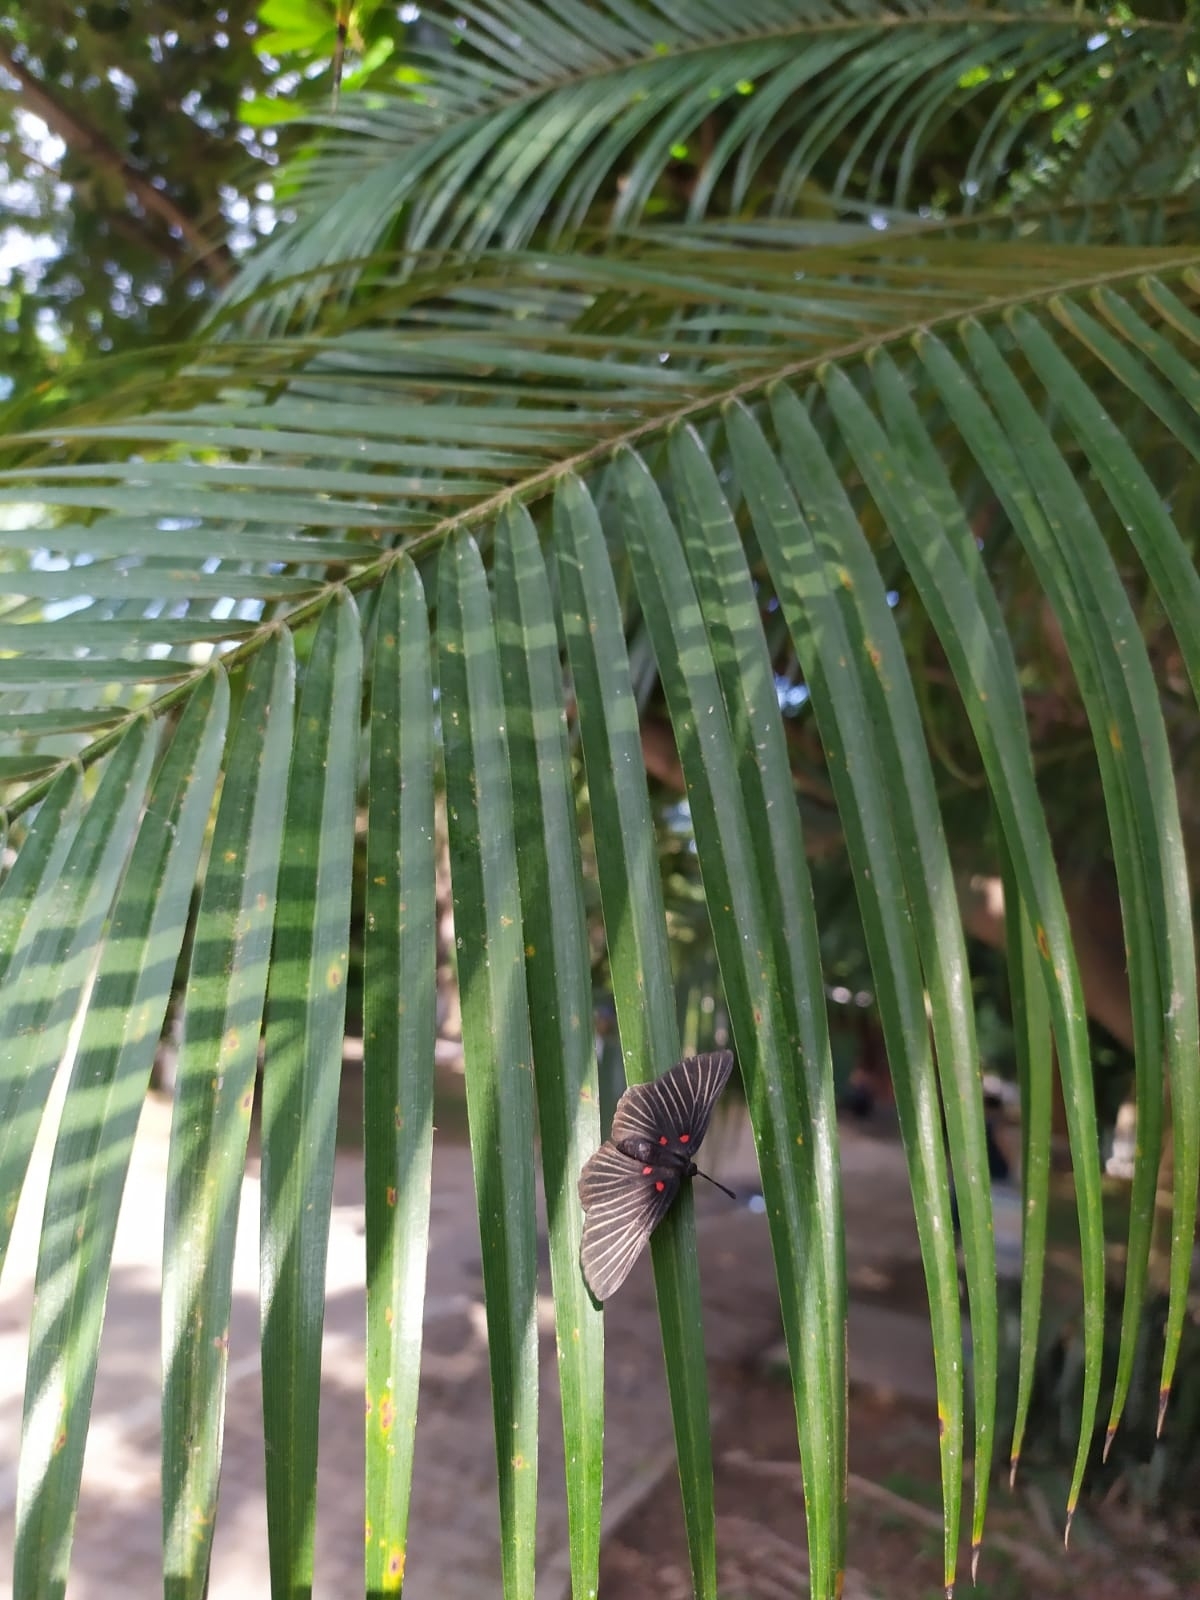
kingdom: Animalia
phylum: Arthropoda
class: Insecta
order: Lepidoptera
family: Lycaenidae
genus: Melanis
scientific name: Melanis
